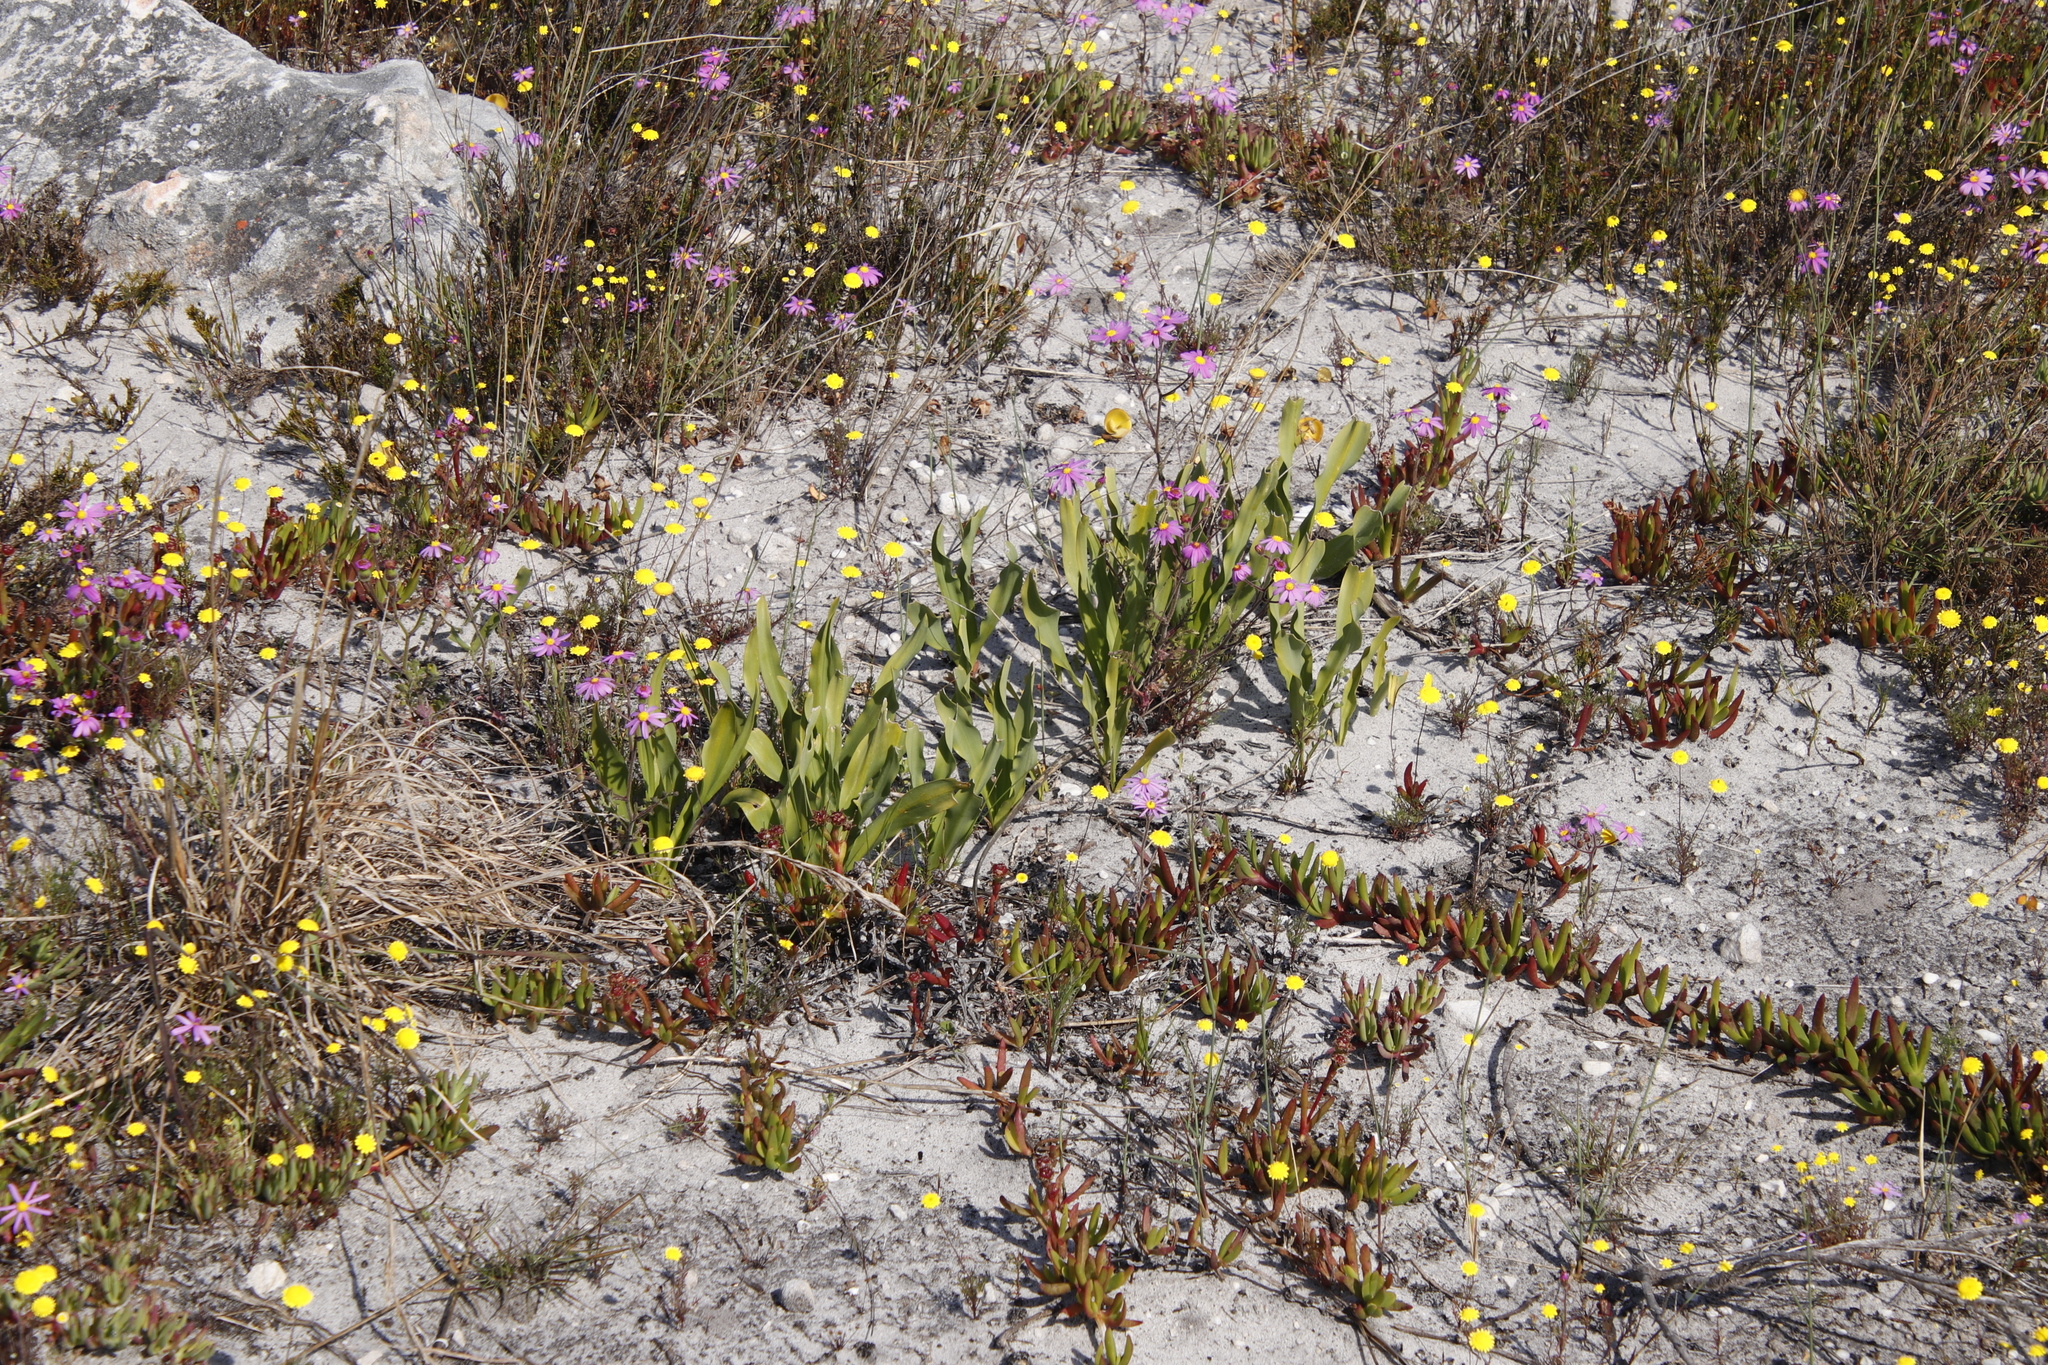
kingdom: Plantae
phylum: Tracheophyta
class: Liliopsida
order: Asparagales
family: Asparagaceae
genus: Drimia
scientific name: Drimia elata
